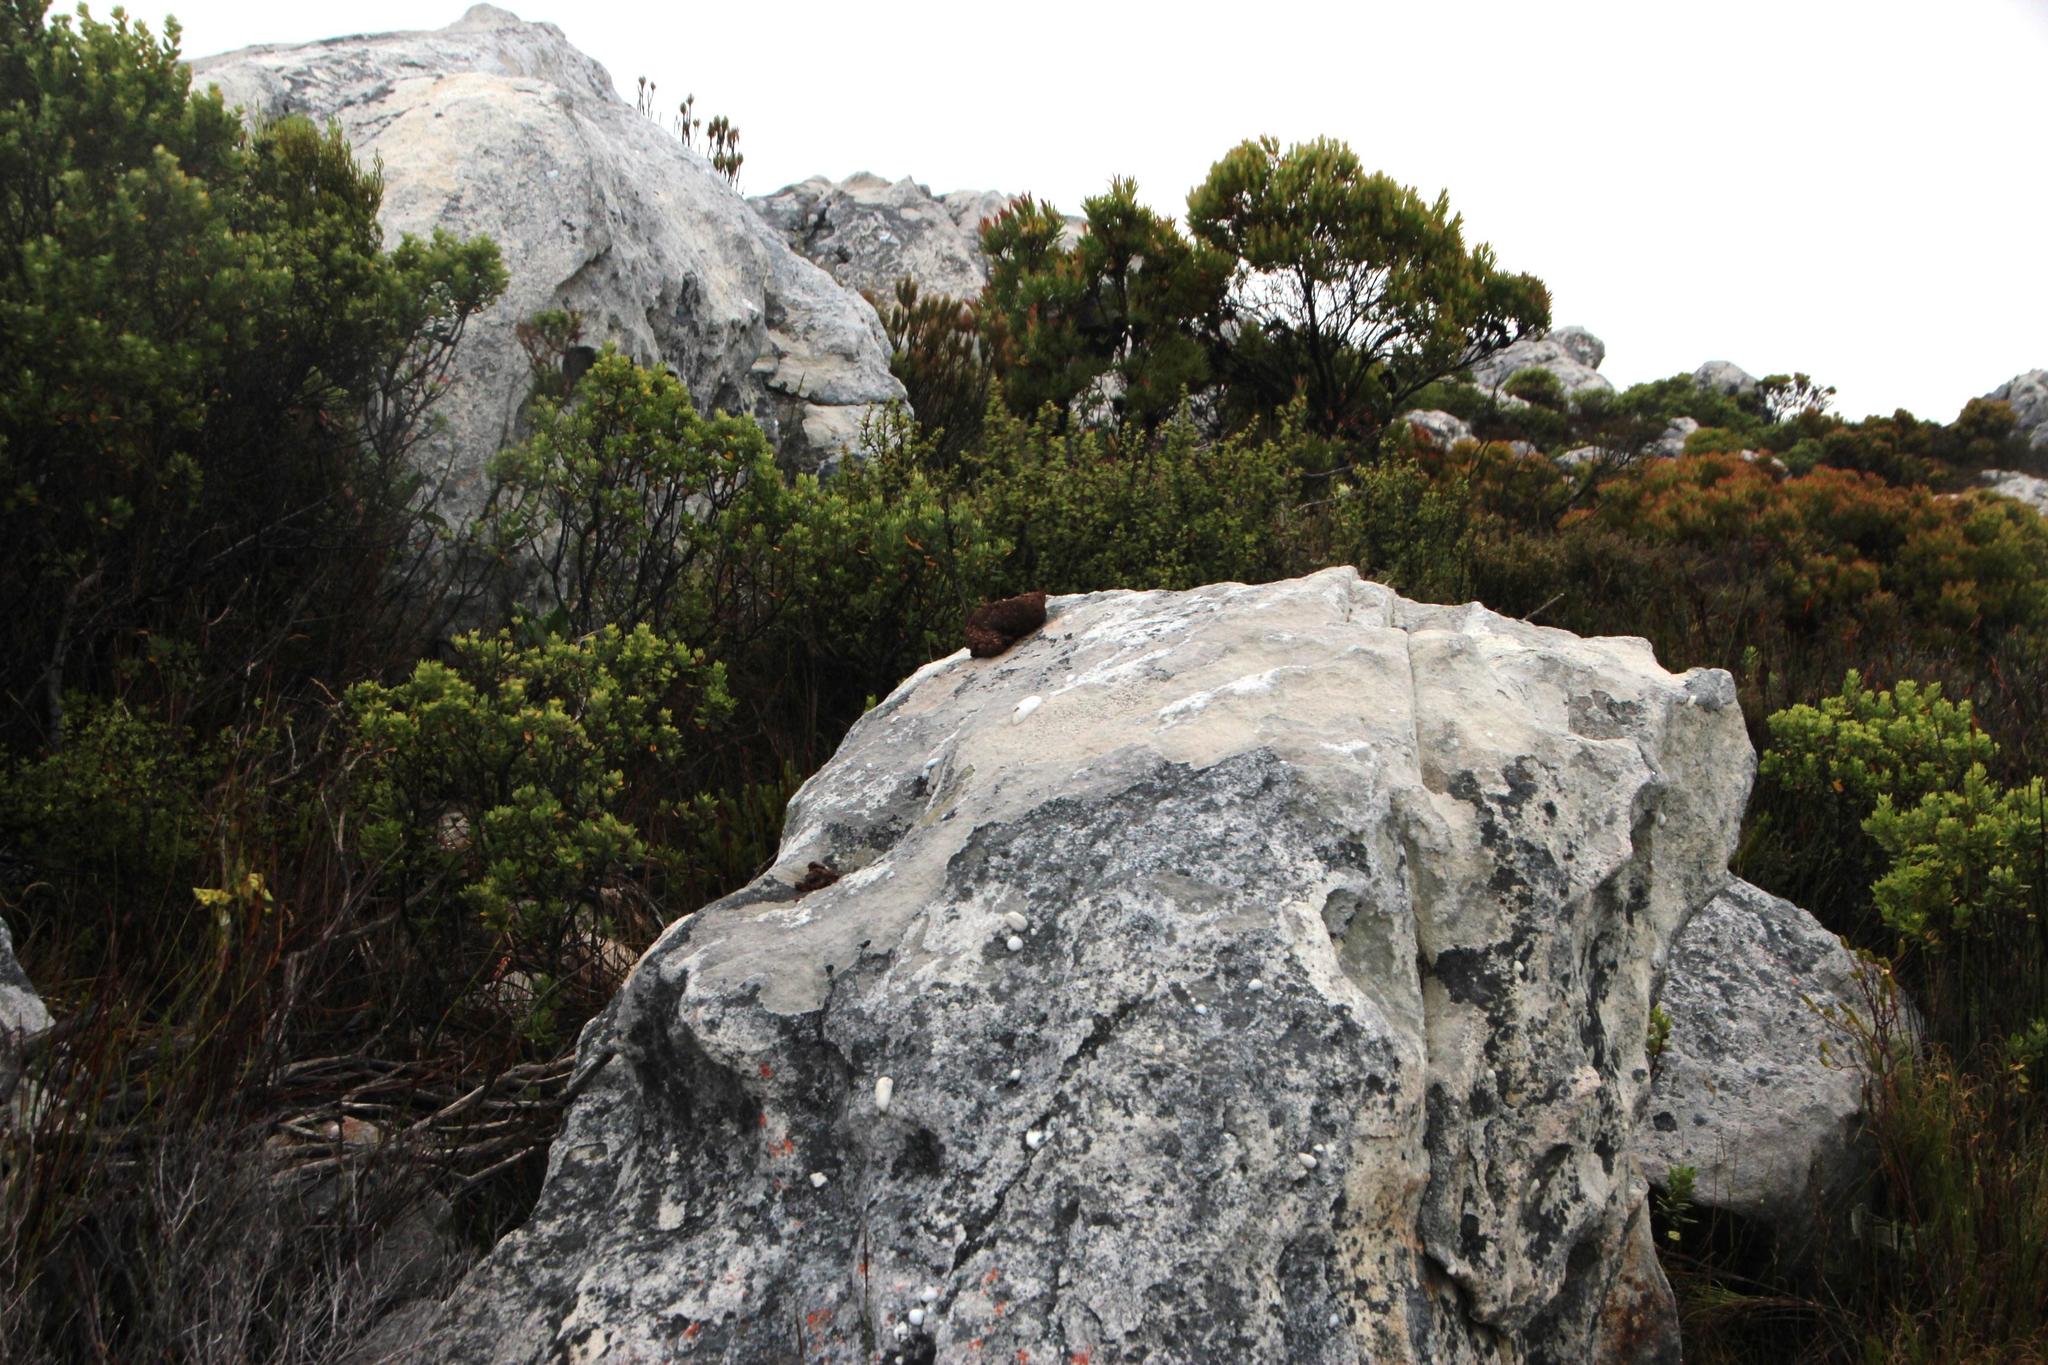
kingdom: Animalia
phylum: Chordata
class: Mammalia
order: Primates
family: Cercopithecidae
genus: Papio
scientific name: Papio ursinus
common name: Chacma baboon
